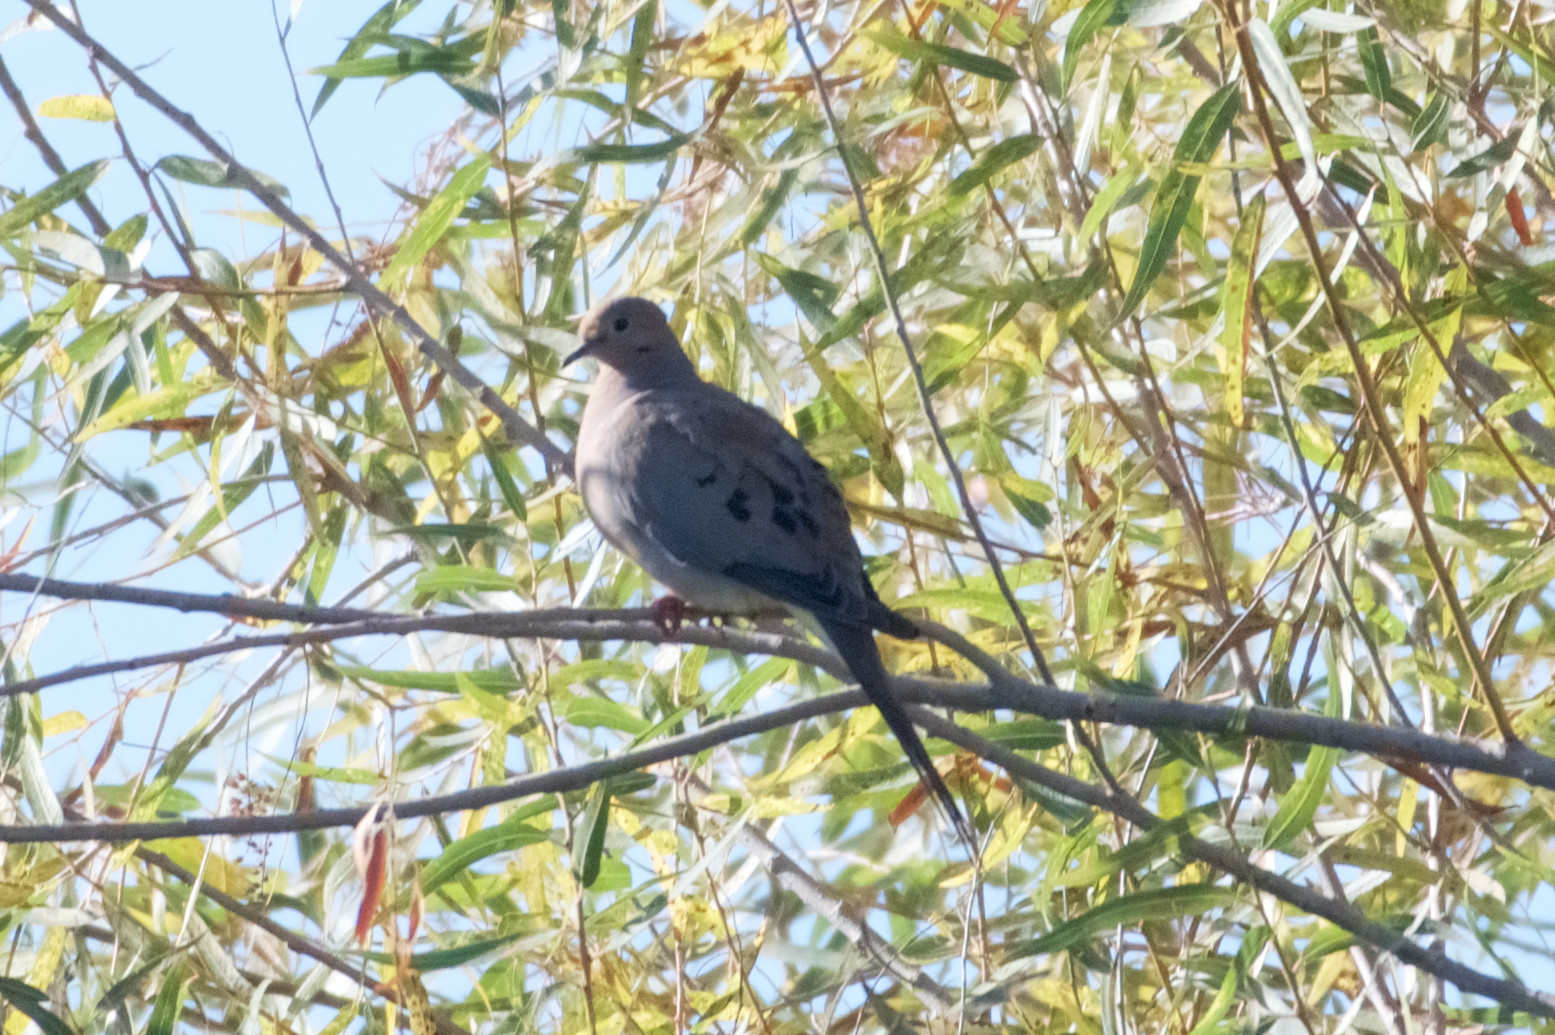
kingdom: Animalia
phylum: Chordata
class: Aves
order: Columbiformes
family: Columbidae
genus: Zenaida
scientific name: Zenaida macroura
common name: Mourning dove
